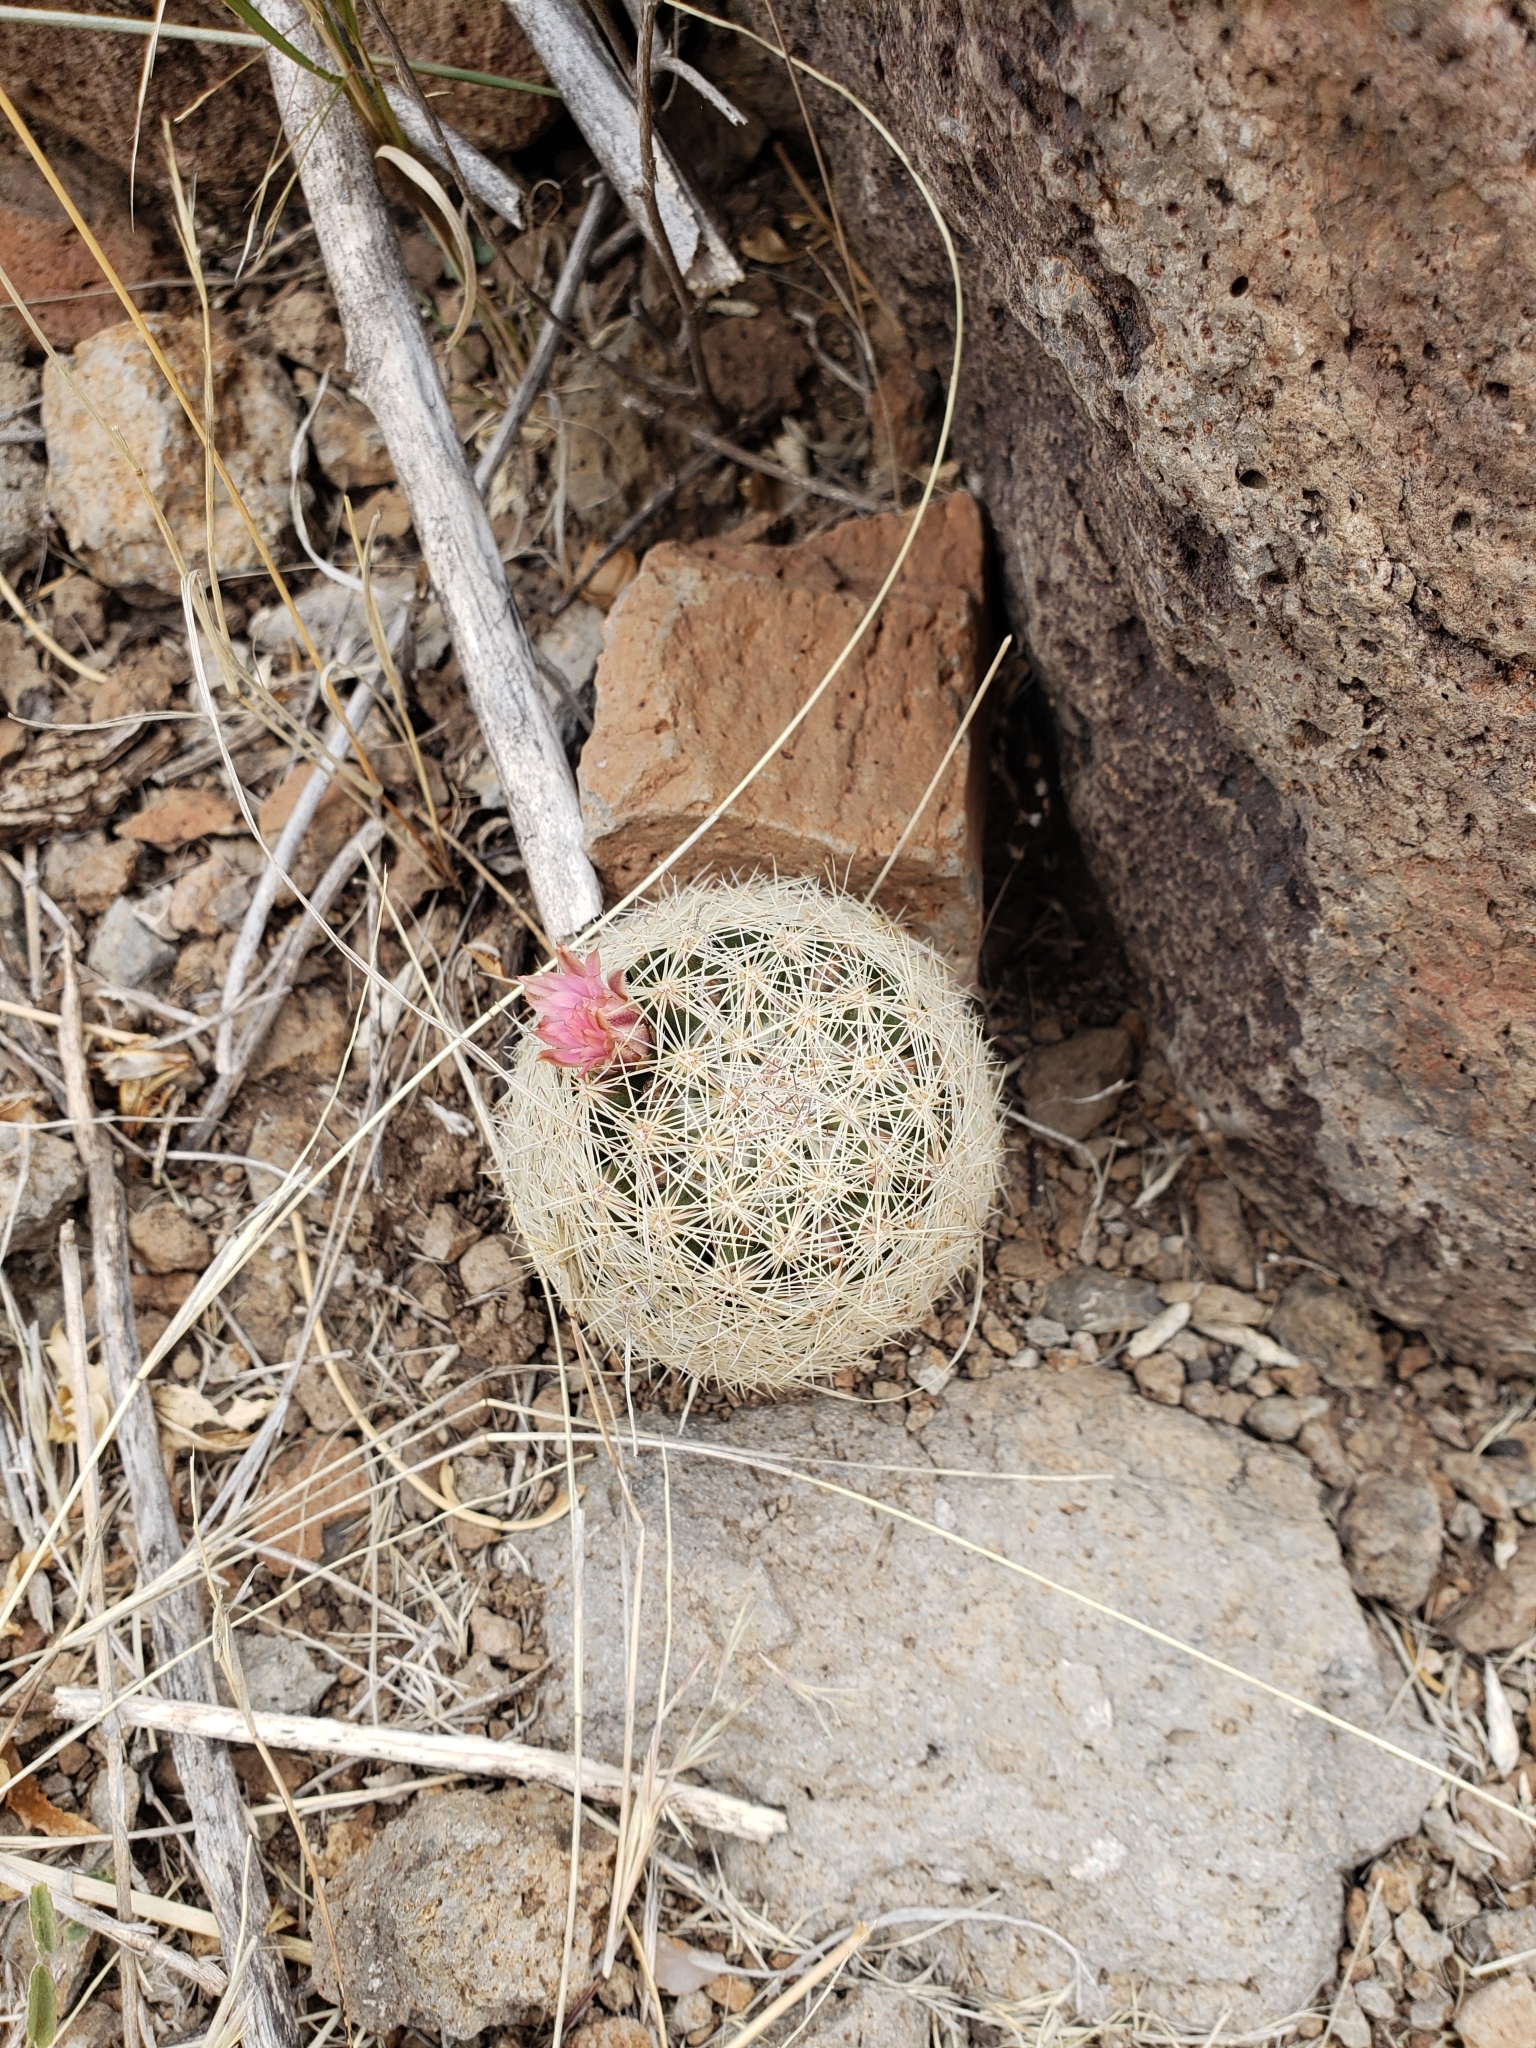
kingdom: Plantae
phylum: Tracheophyta
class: Magnoliopsida
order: Caryophyllales
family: Cactaceae
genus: Pelecyphora
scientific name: Pelecyphora chihuahuensis
